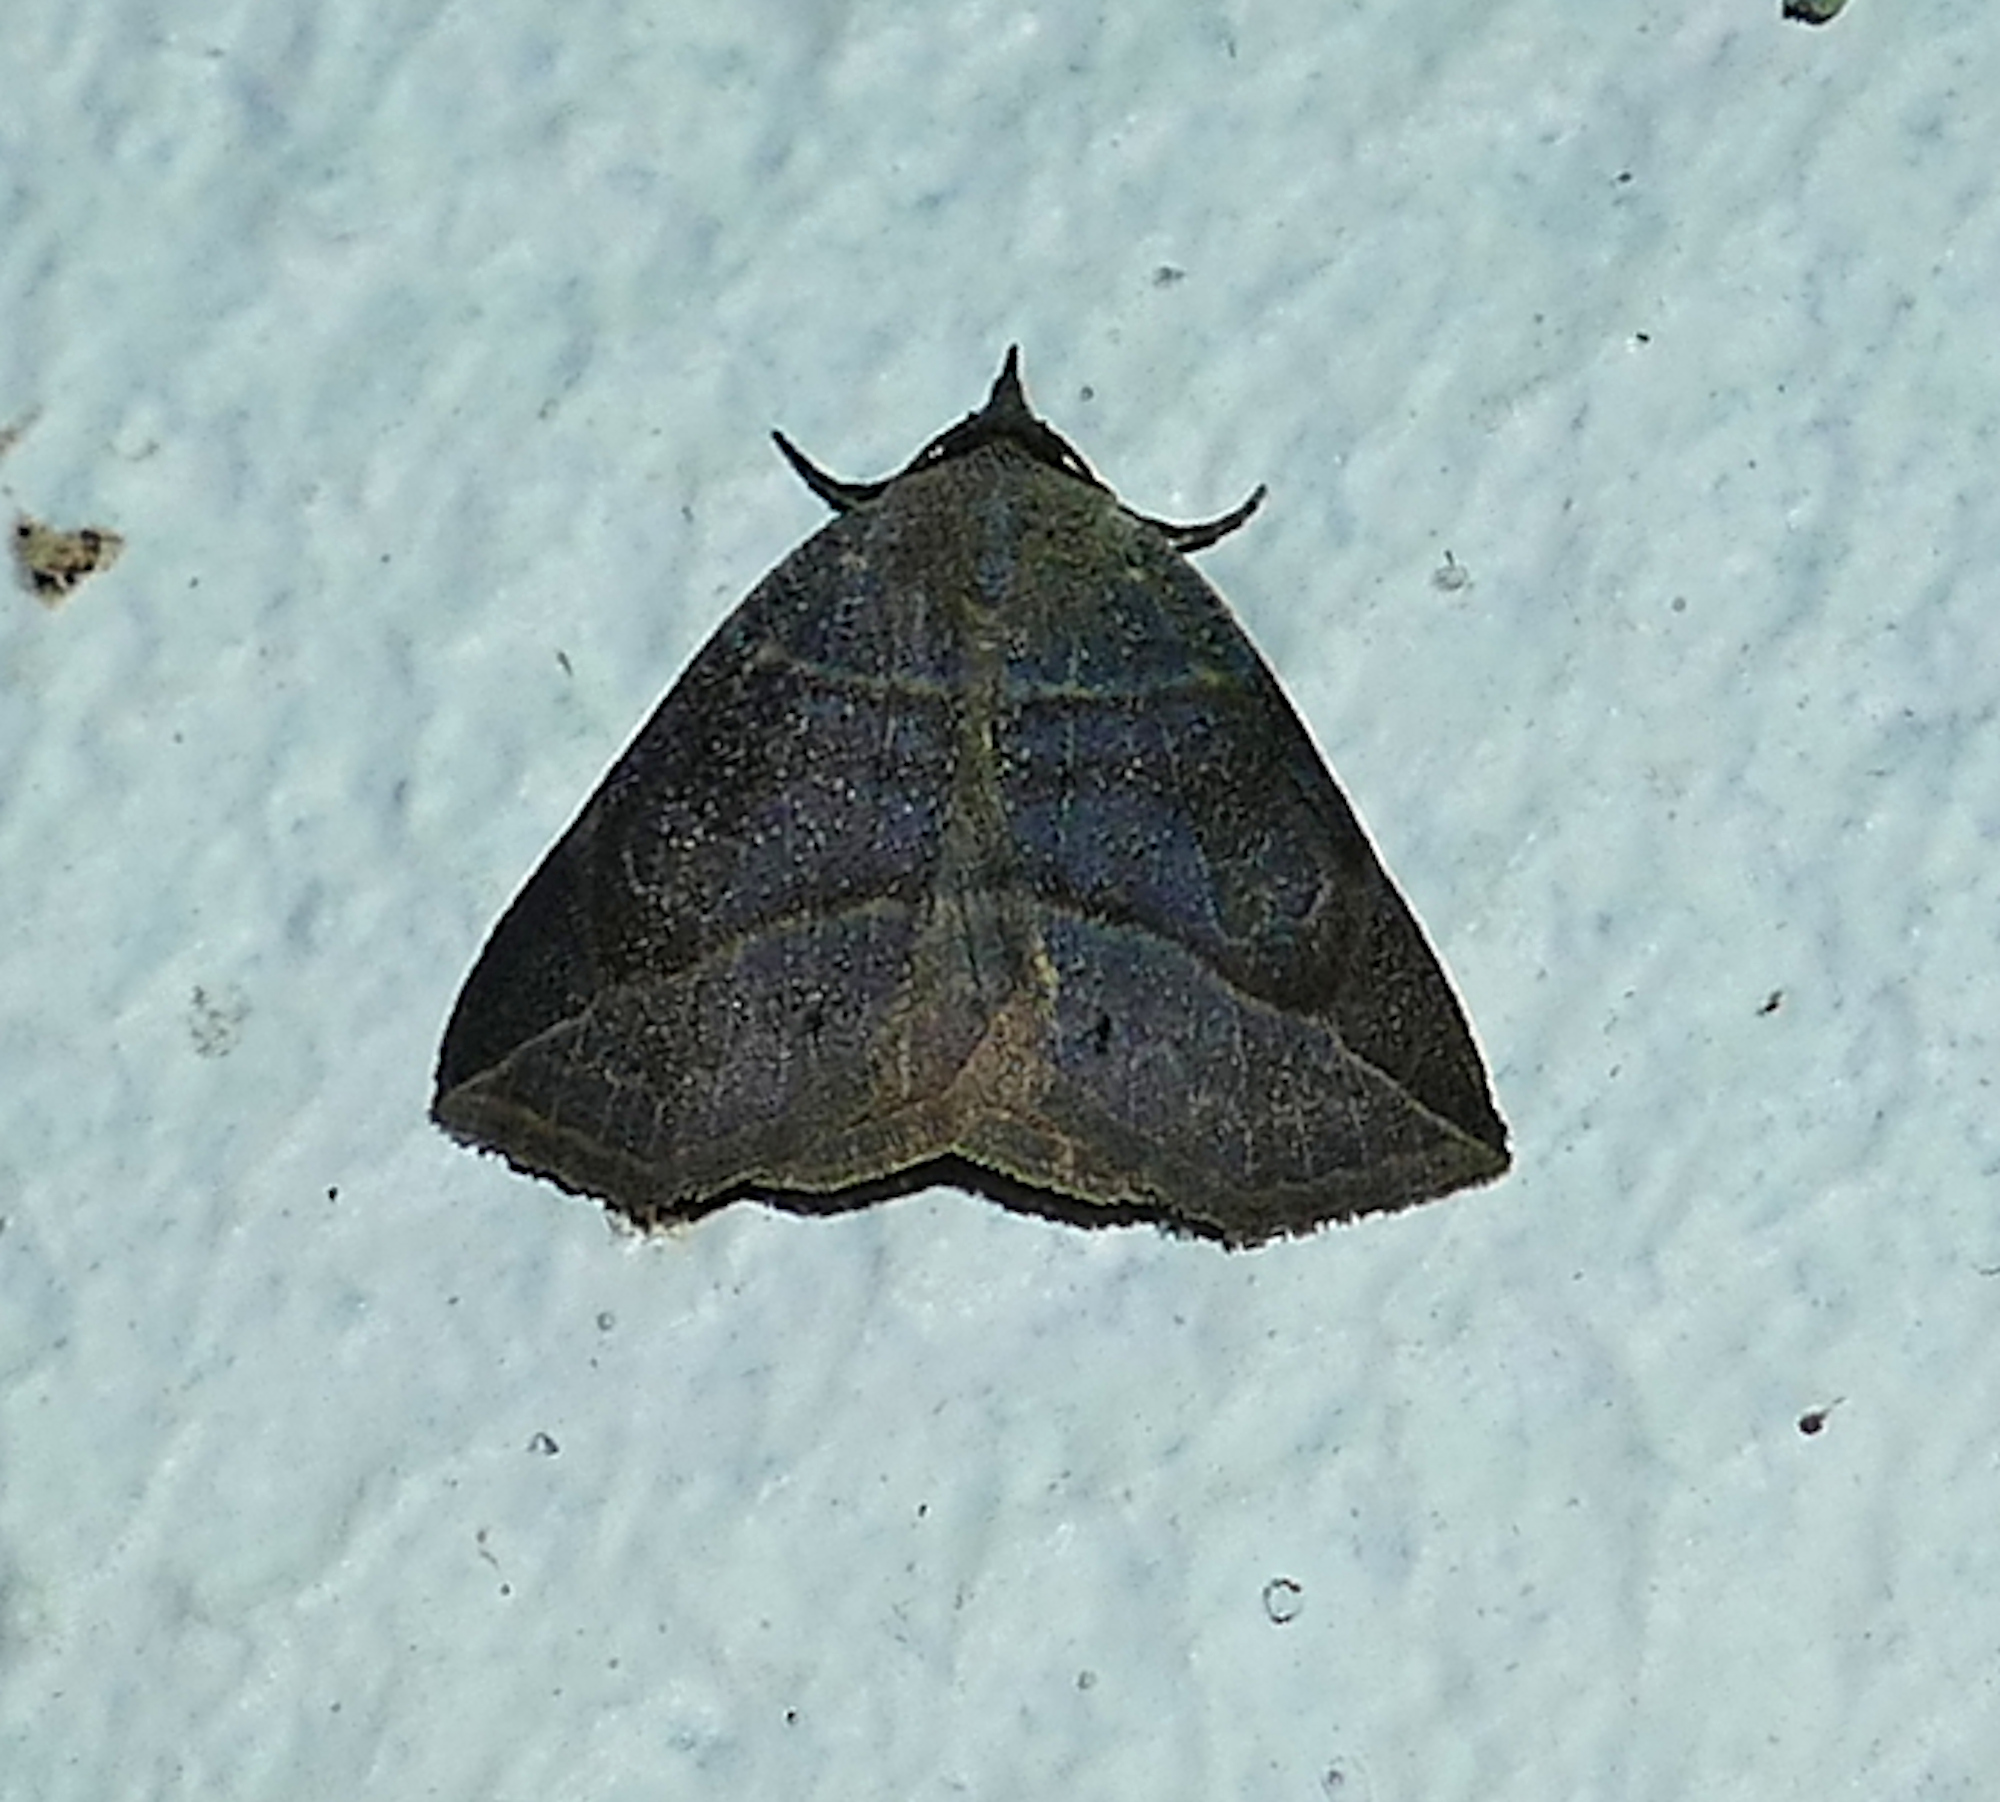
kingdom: Animalia
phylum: Arthropoda
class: Insecta
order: Lepidoptera
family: Erebidae
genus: Isogona
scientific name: Isogona tenuis
